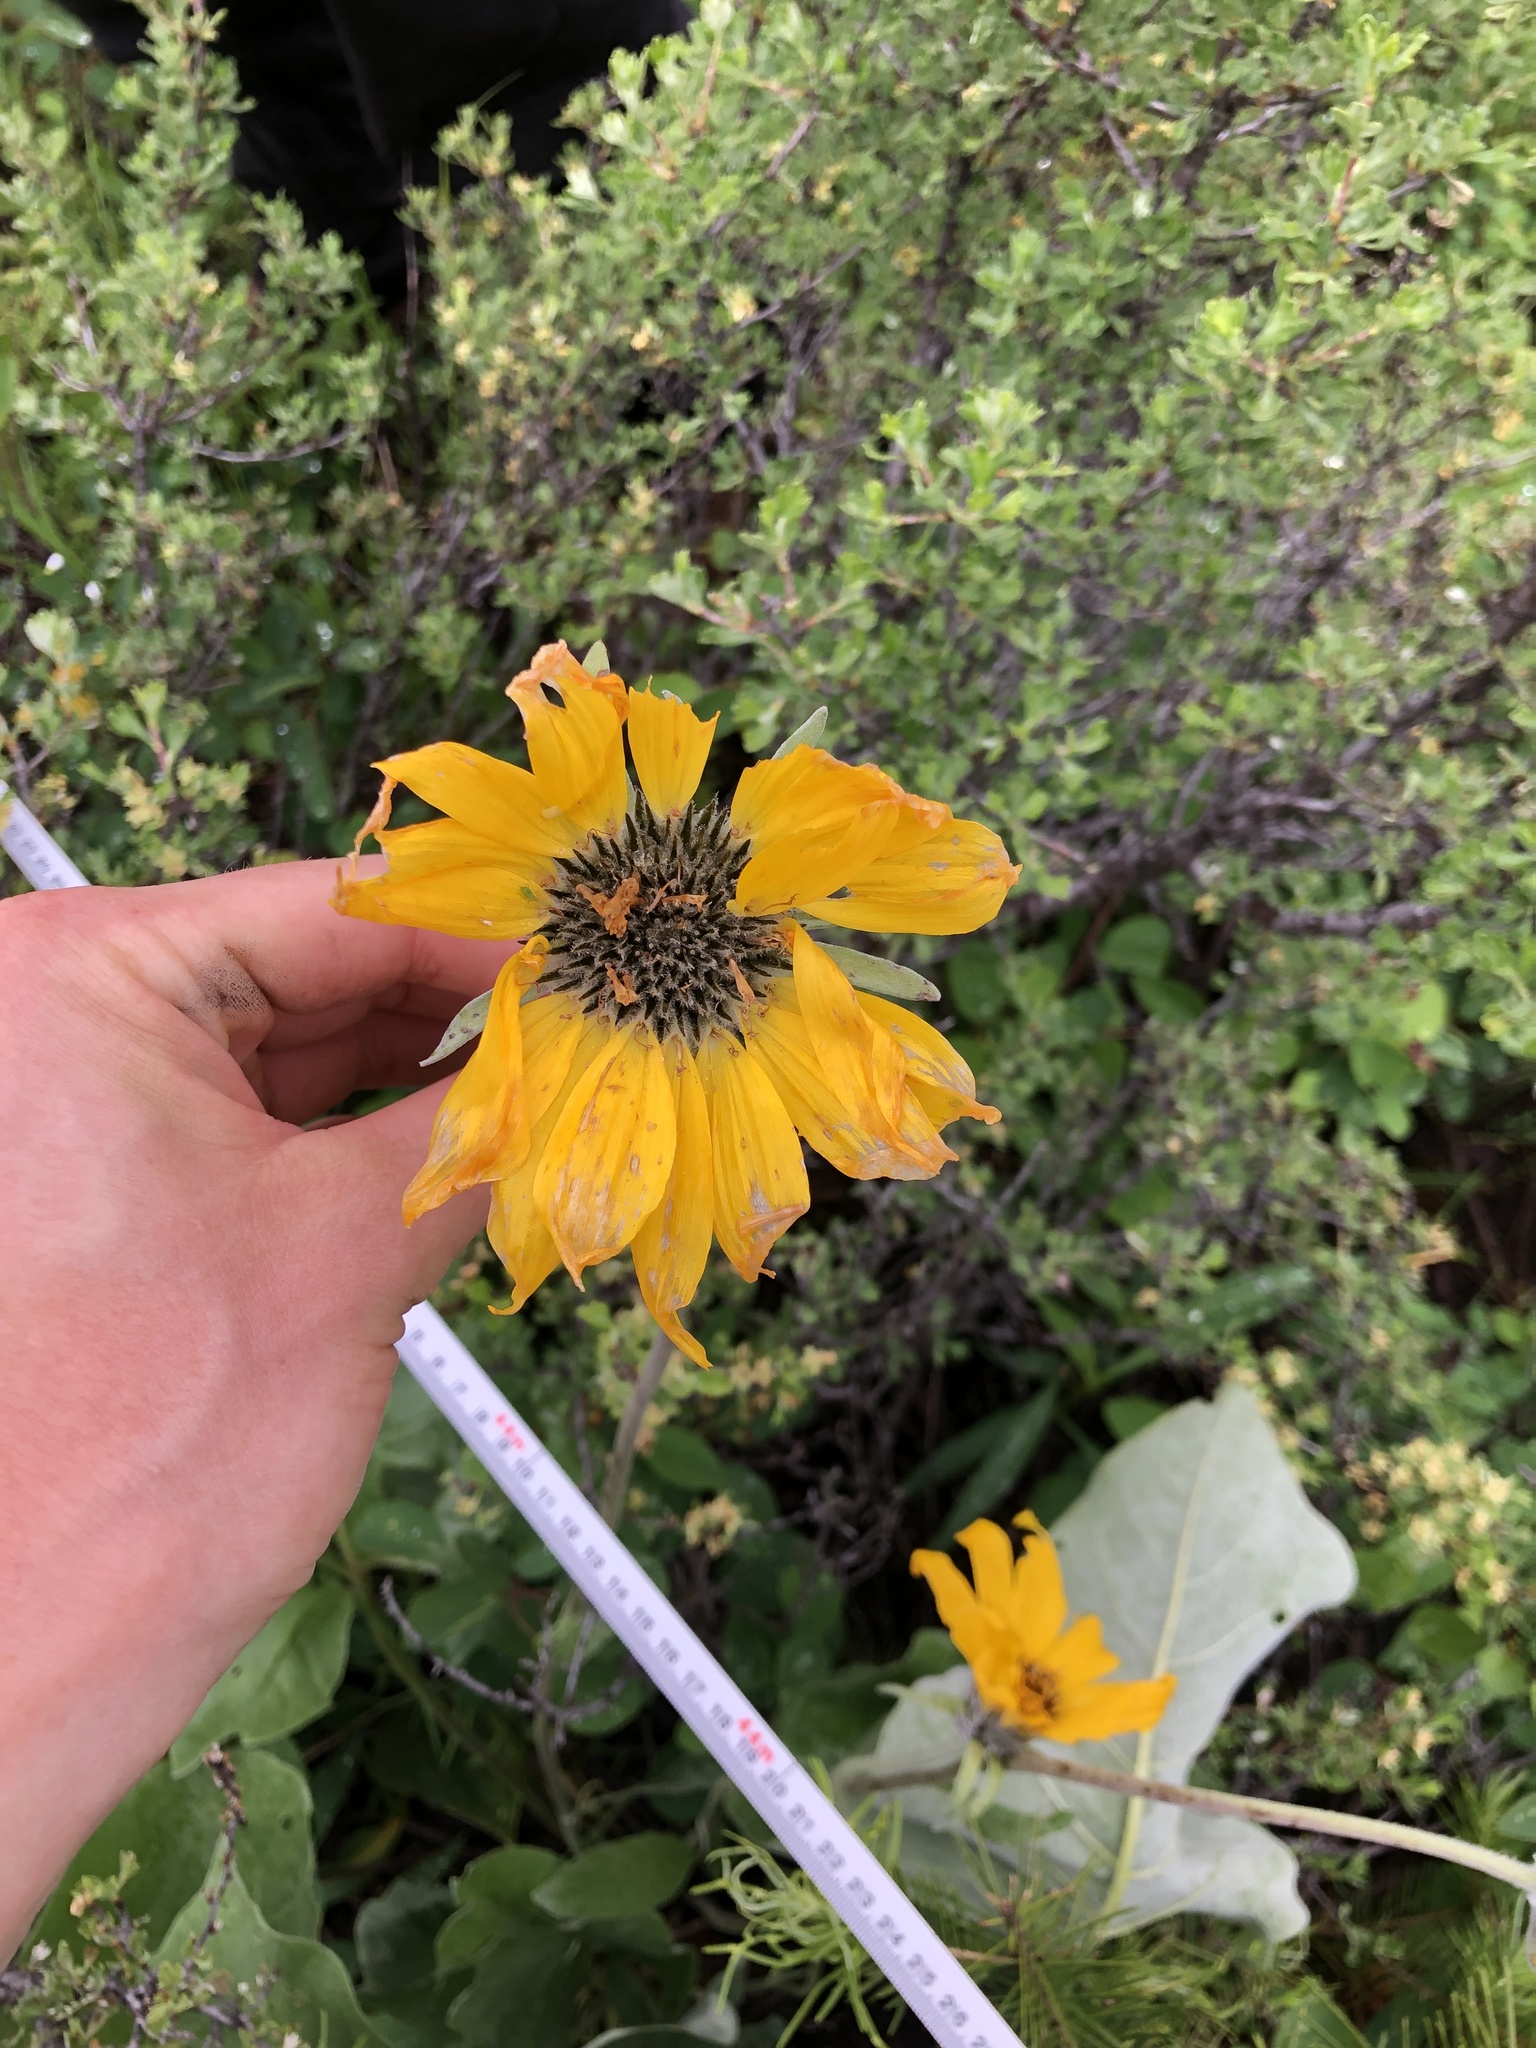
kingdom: Plantae
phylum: Tracheophyta
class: Magnoliopsida
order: Asterales
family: Asteraceae
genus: Wyethia
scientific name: Wyethia sagittata
